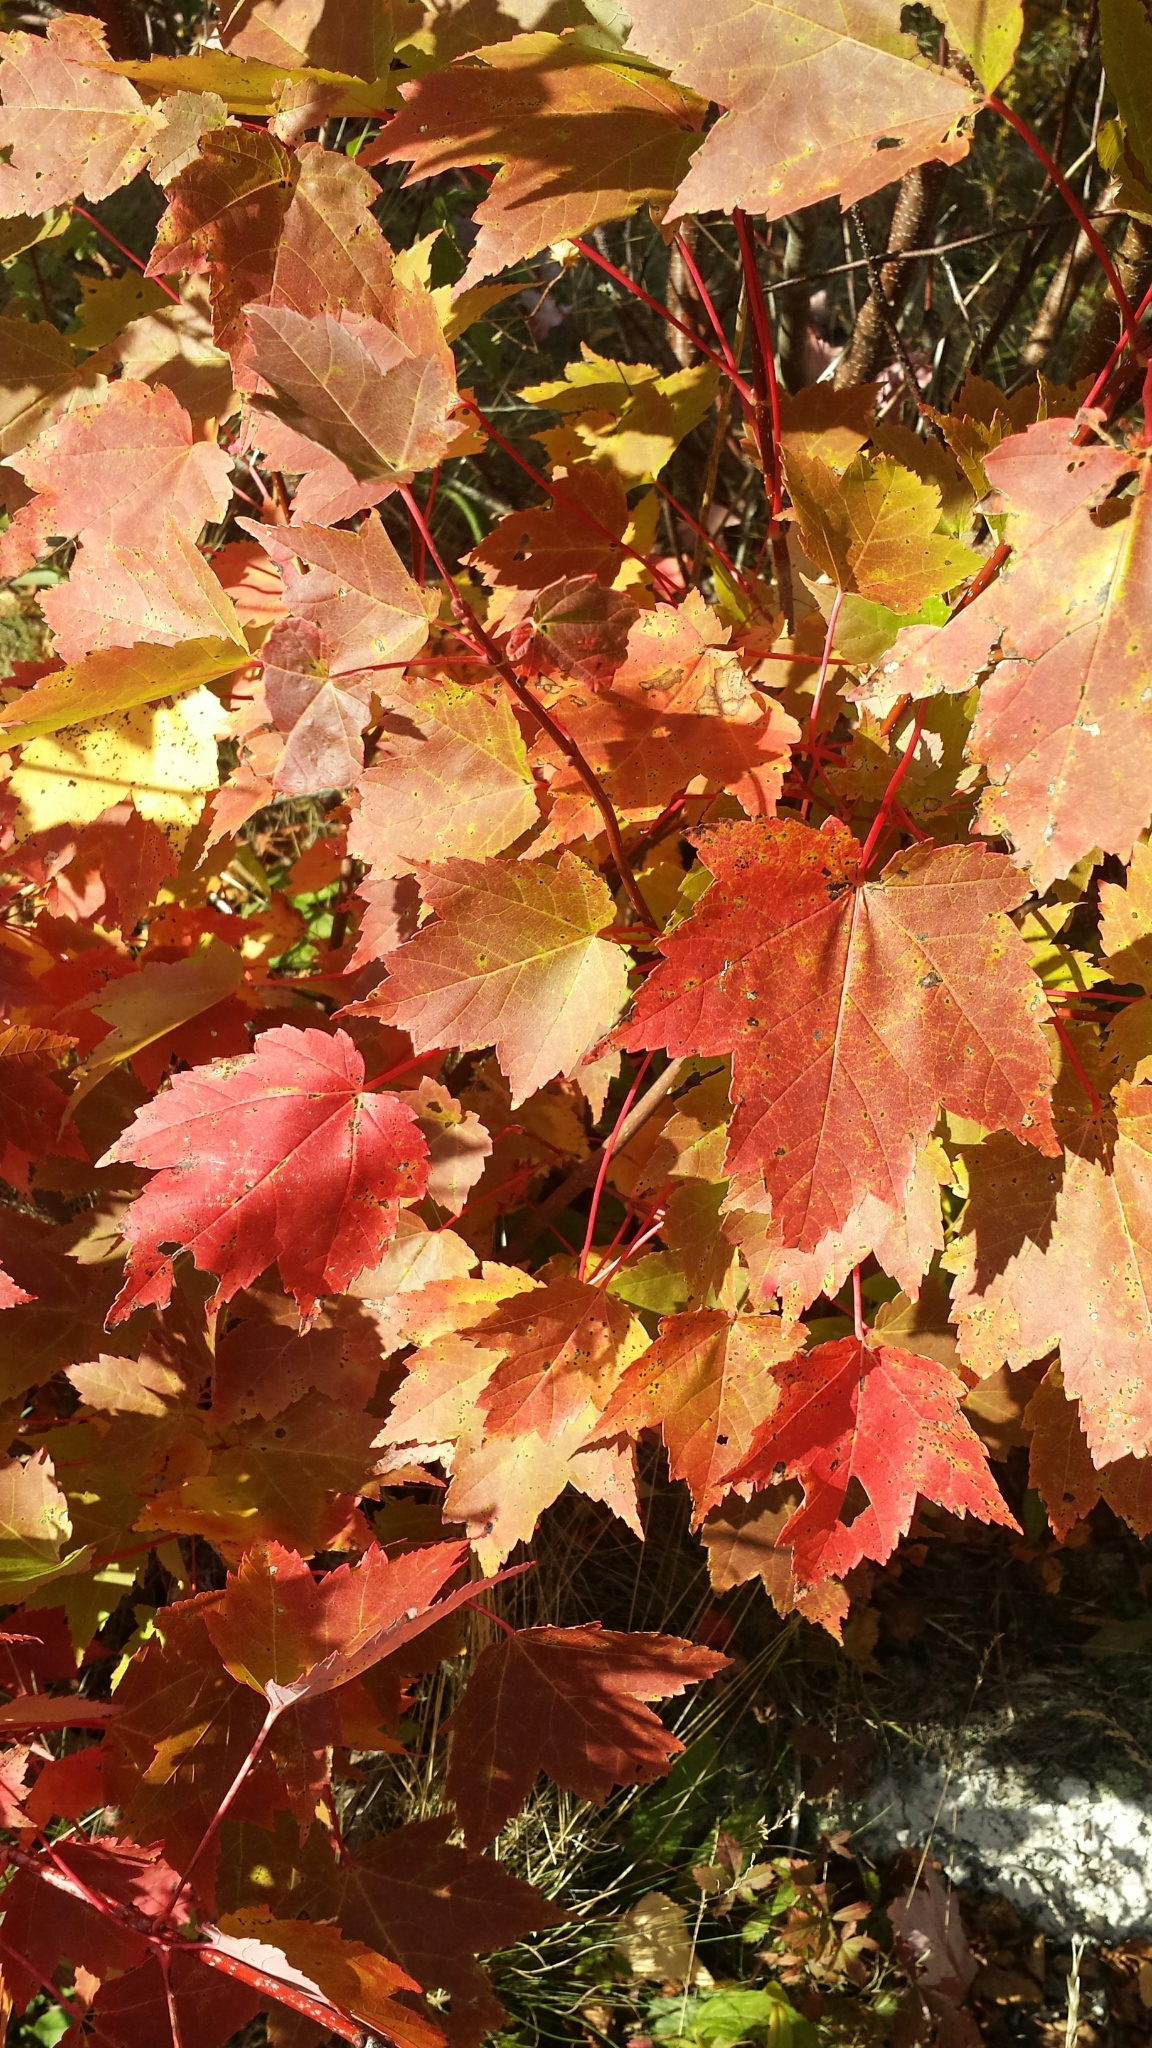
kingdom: Plantae
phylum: Tracheophyta
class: Magnoliopsida
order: Sapindales
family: Sapindaceae
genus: Acer
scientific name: Acer rubrum
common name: Red maple
